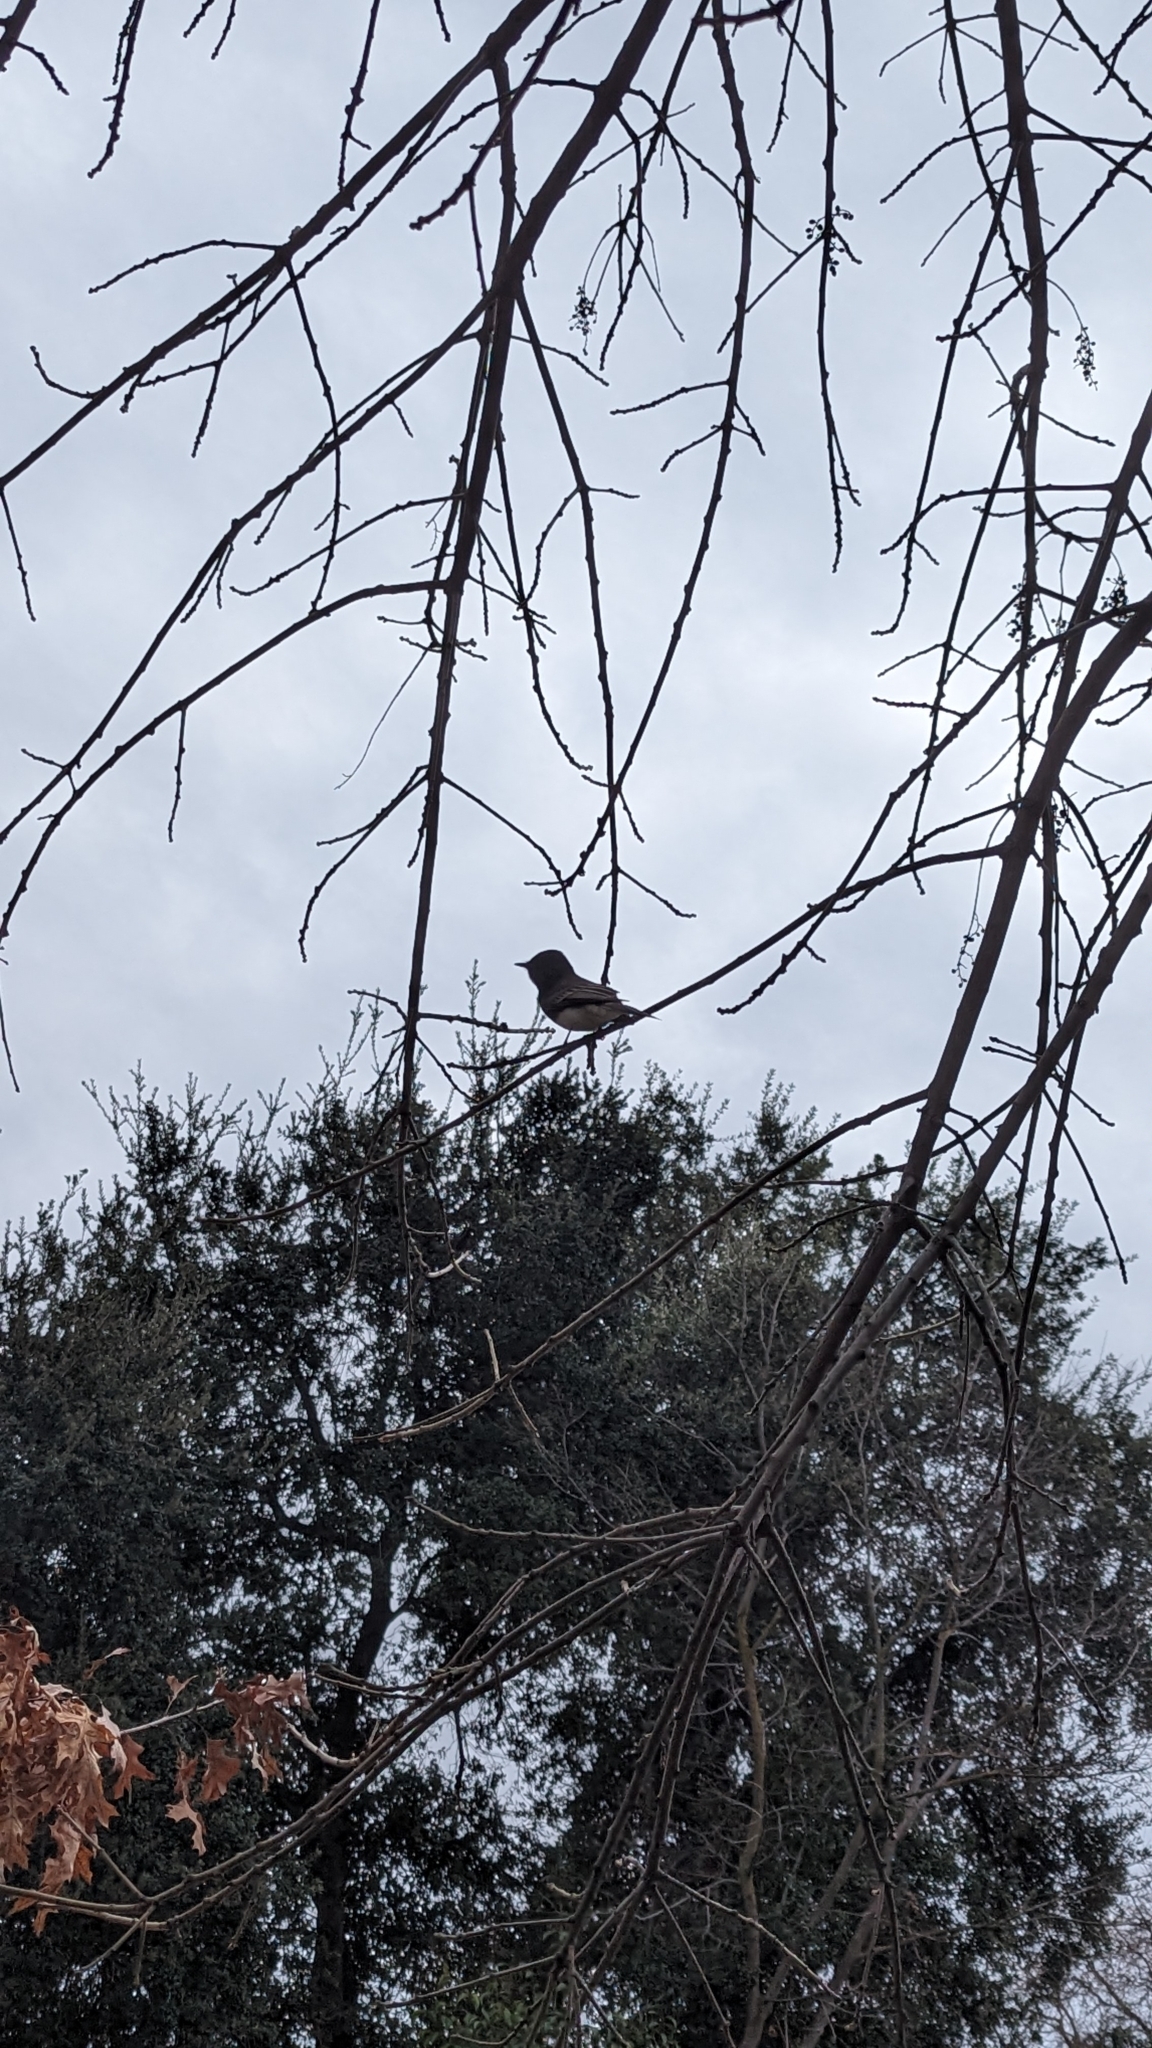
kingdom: Animalia
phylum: Chordata
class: Aves
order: Passeriformes
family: Tyrannidae
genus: Sayornis
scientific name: Sayornis nigricans
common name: Black phoebe
